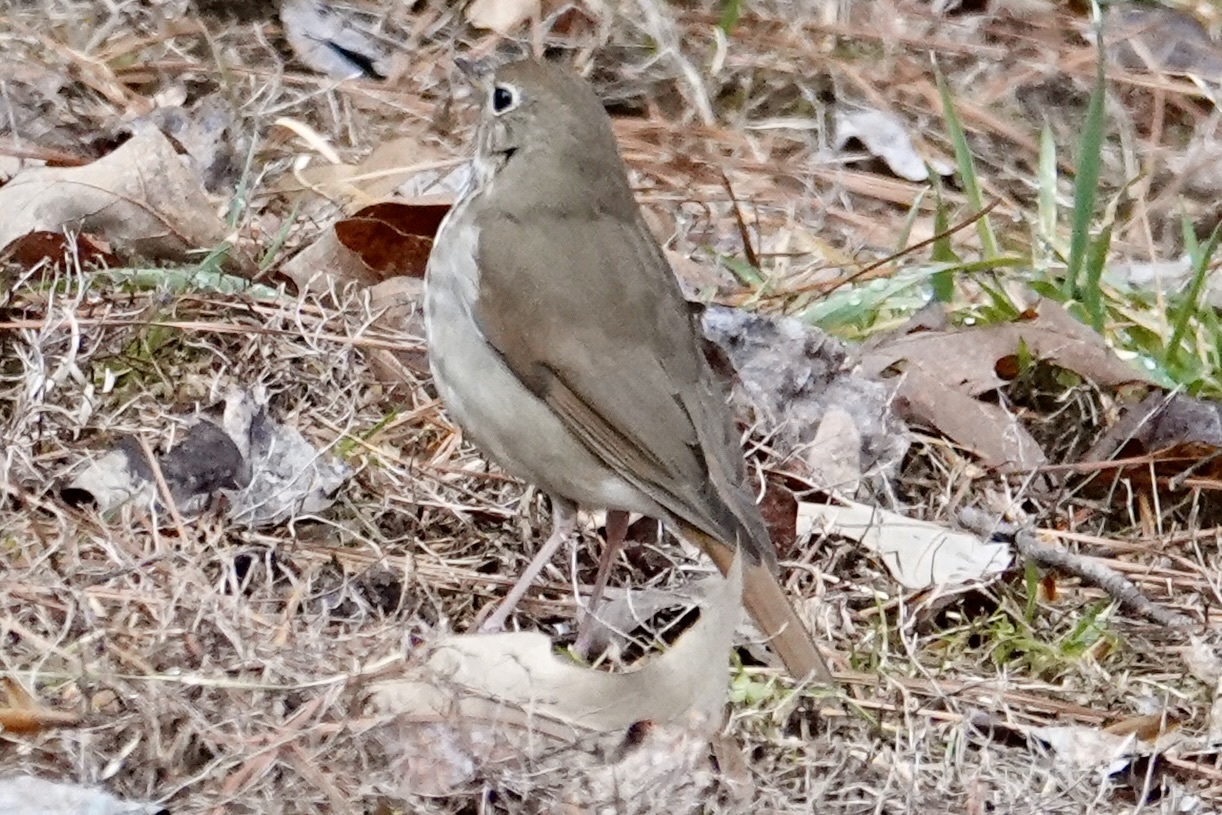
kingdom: Animalia
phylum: Chordata
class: Aves
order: Passeriformes
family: Turdidae
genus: Catharus
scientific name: Catharus guttatus
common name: Hermit thrush
